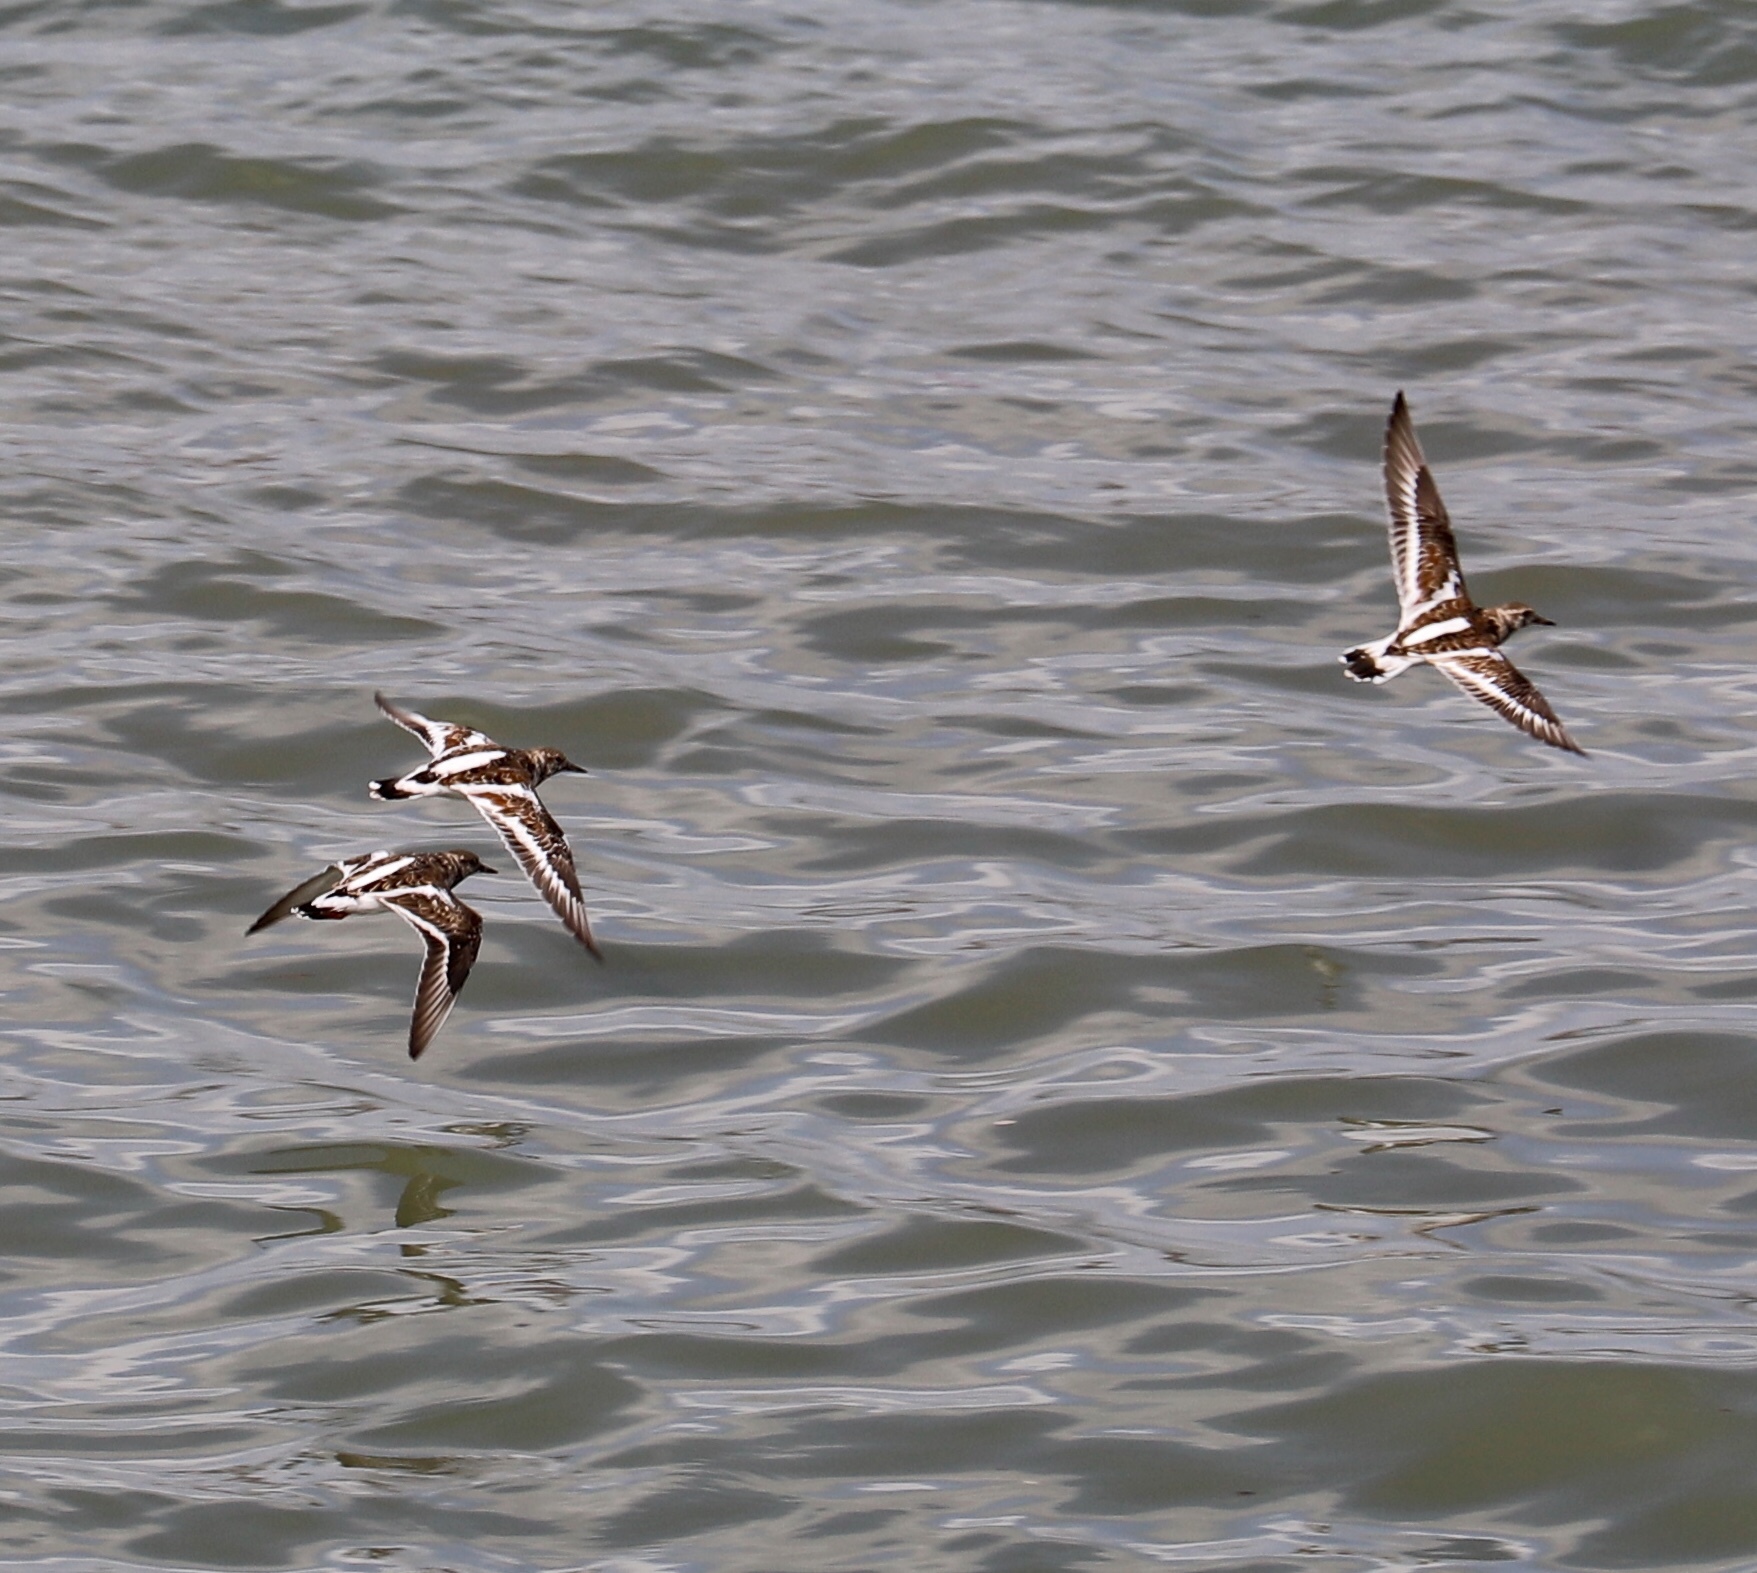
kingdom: Animalia
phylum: Chordata
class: Aves
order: Charadriiformes
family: Scolopacidae
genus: Arenaria
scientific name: Arenaria interpres
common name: Ruddy turnstone
